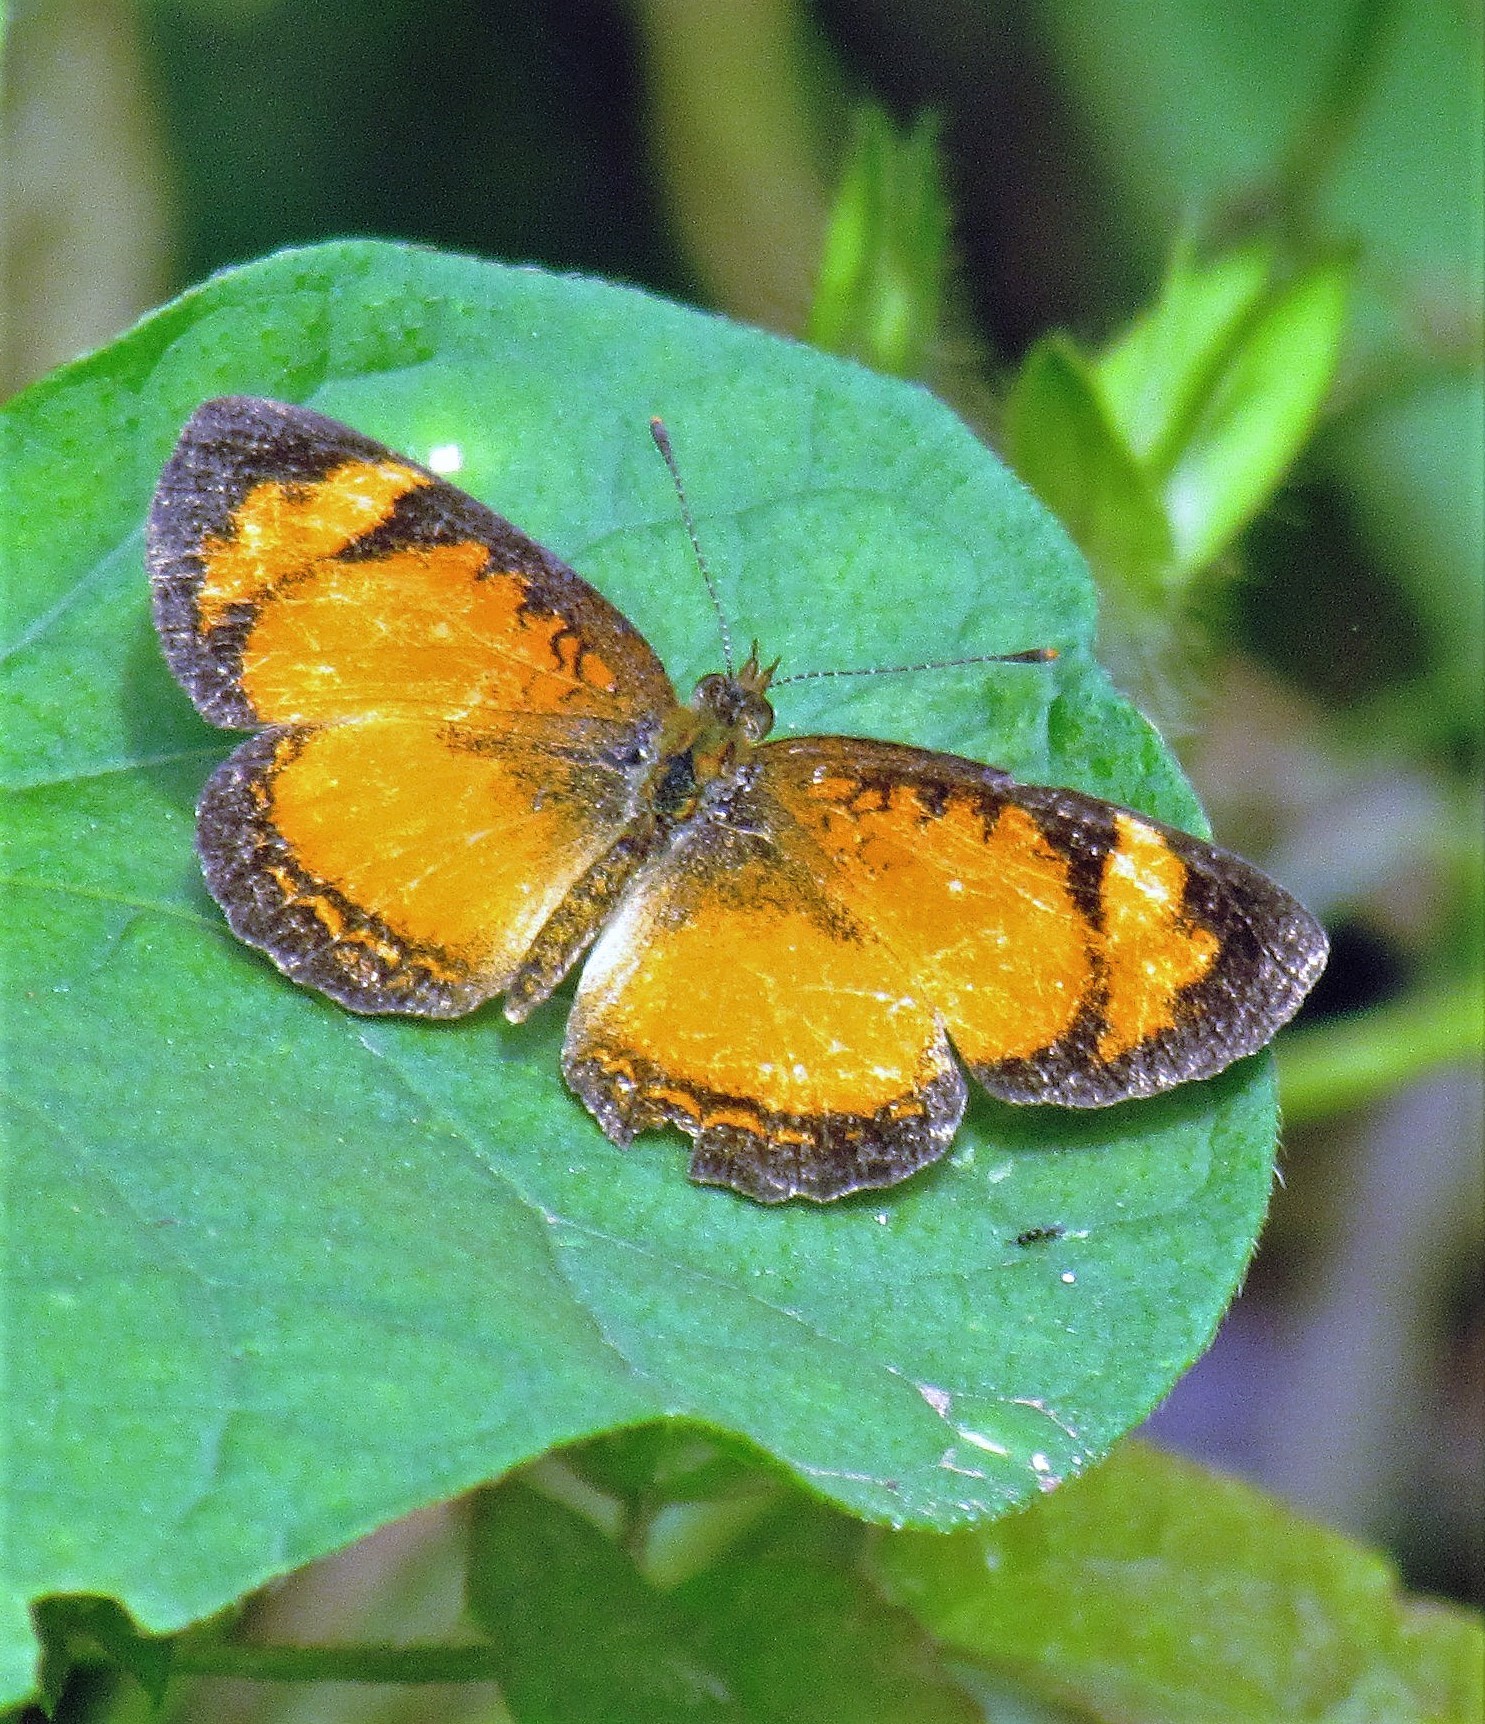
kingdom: Animalia
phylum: Arthropoda
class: Insecta
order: Lepidoptera
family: Nymphalidae
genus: Ortilia
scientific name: Ortilia gentina
